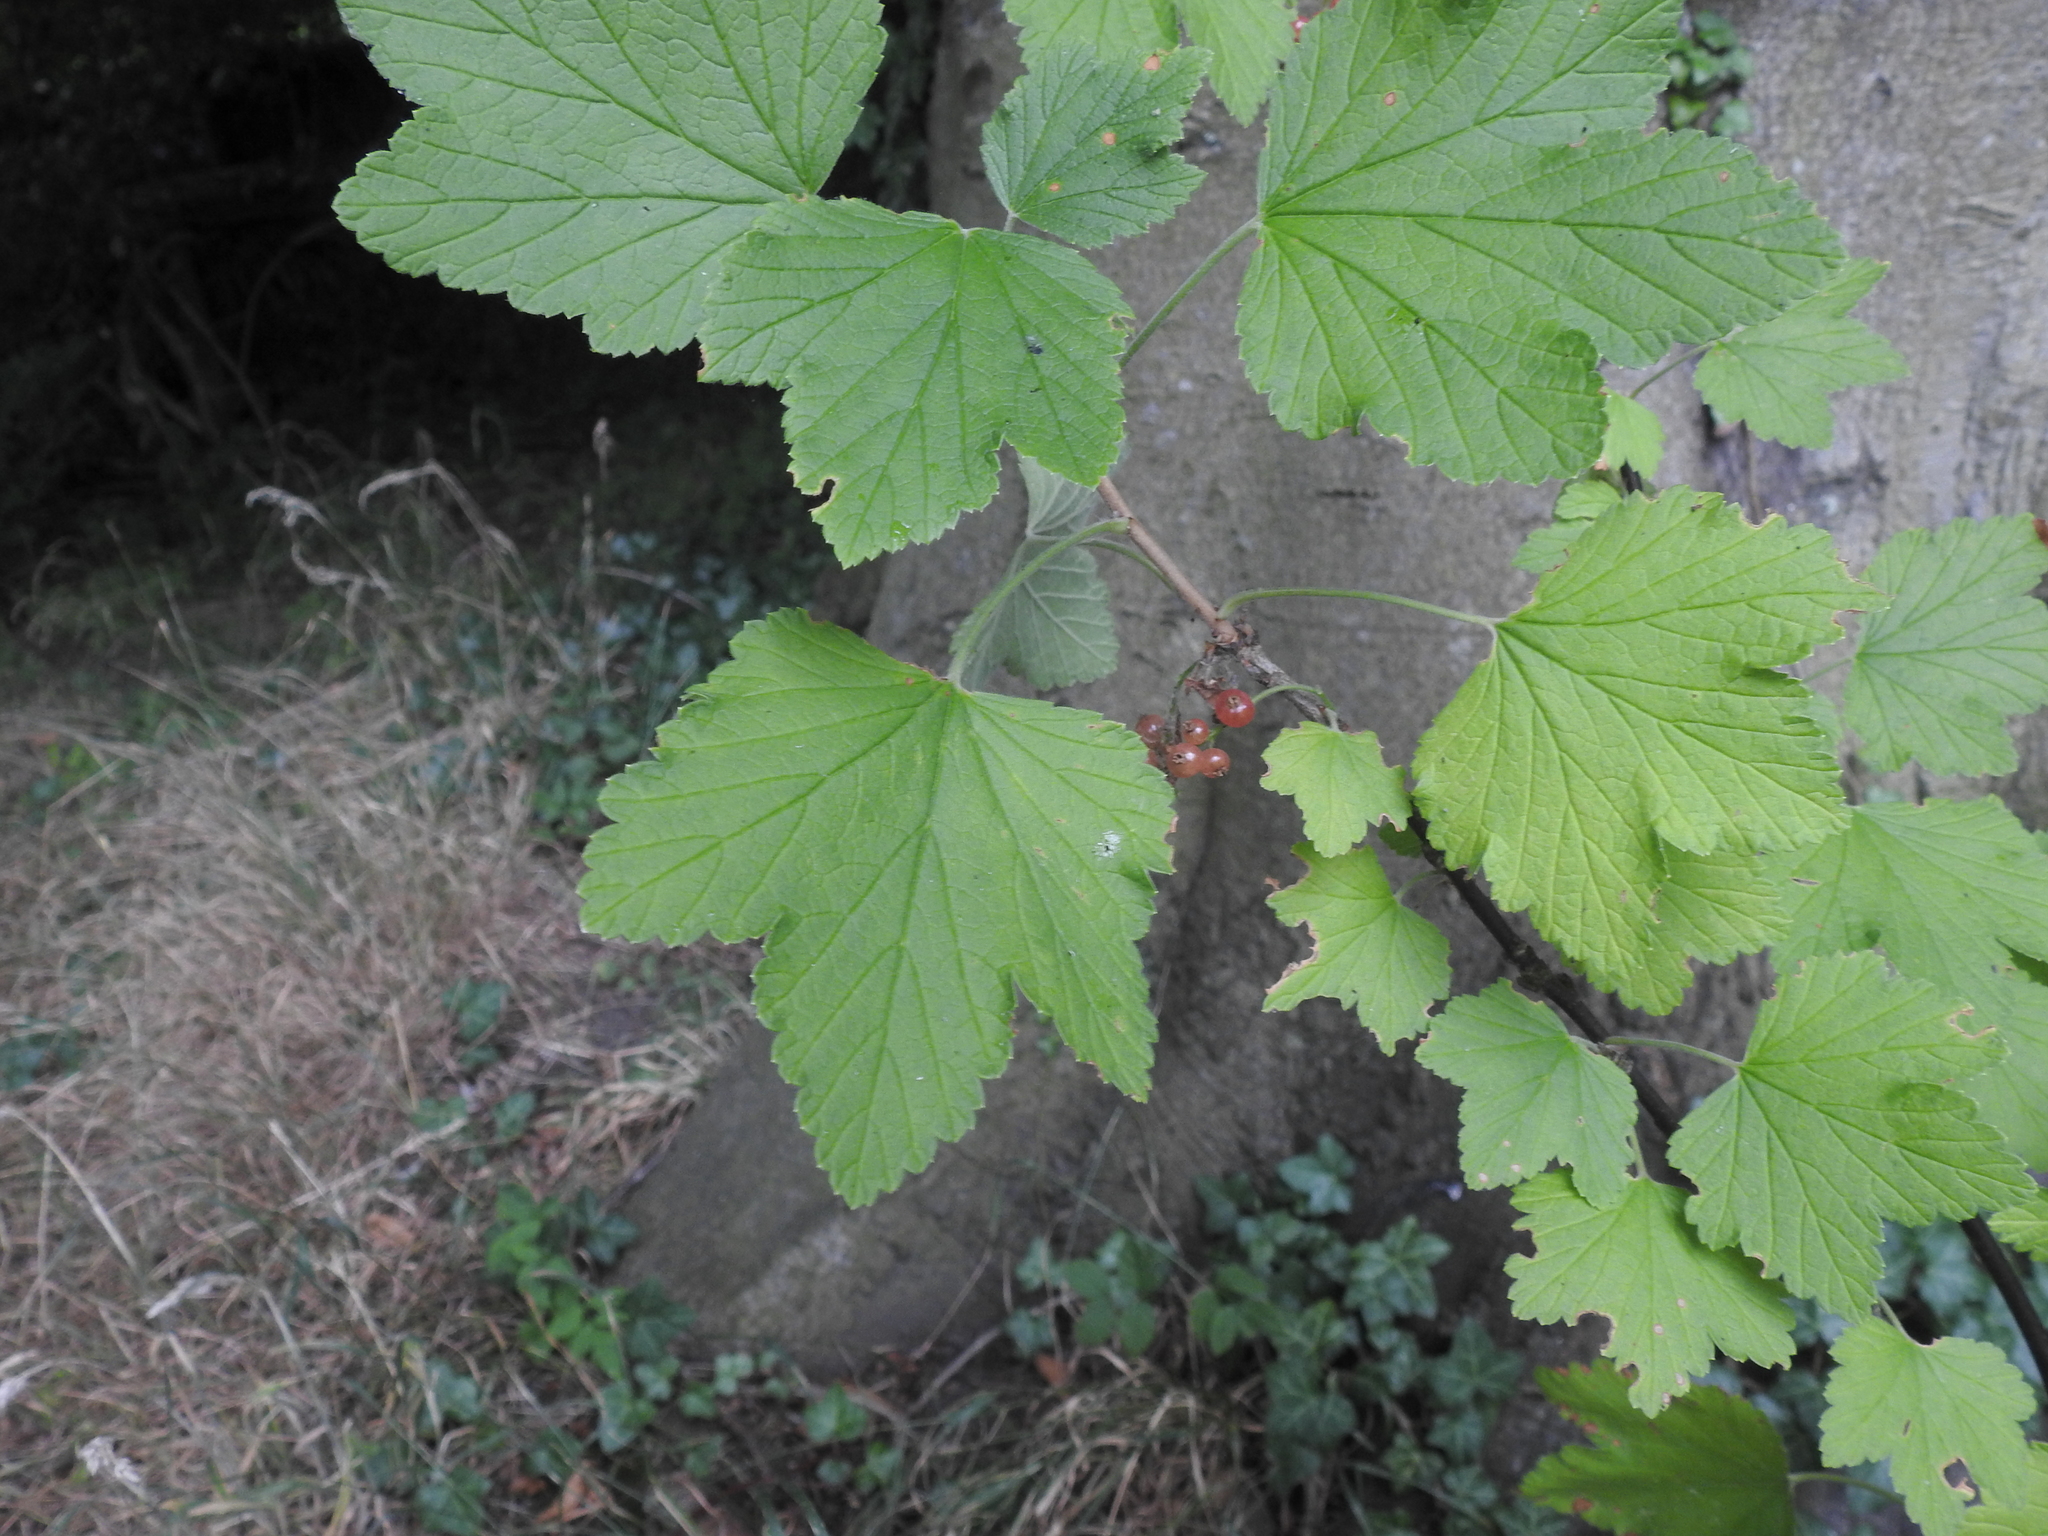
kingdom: Plantae
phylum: Tracheophyta
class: Magnoliopsida
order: Saxifragales
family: Grossulariaceae
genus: Ribes
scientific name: Ribes rubrum
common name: Red currant
